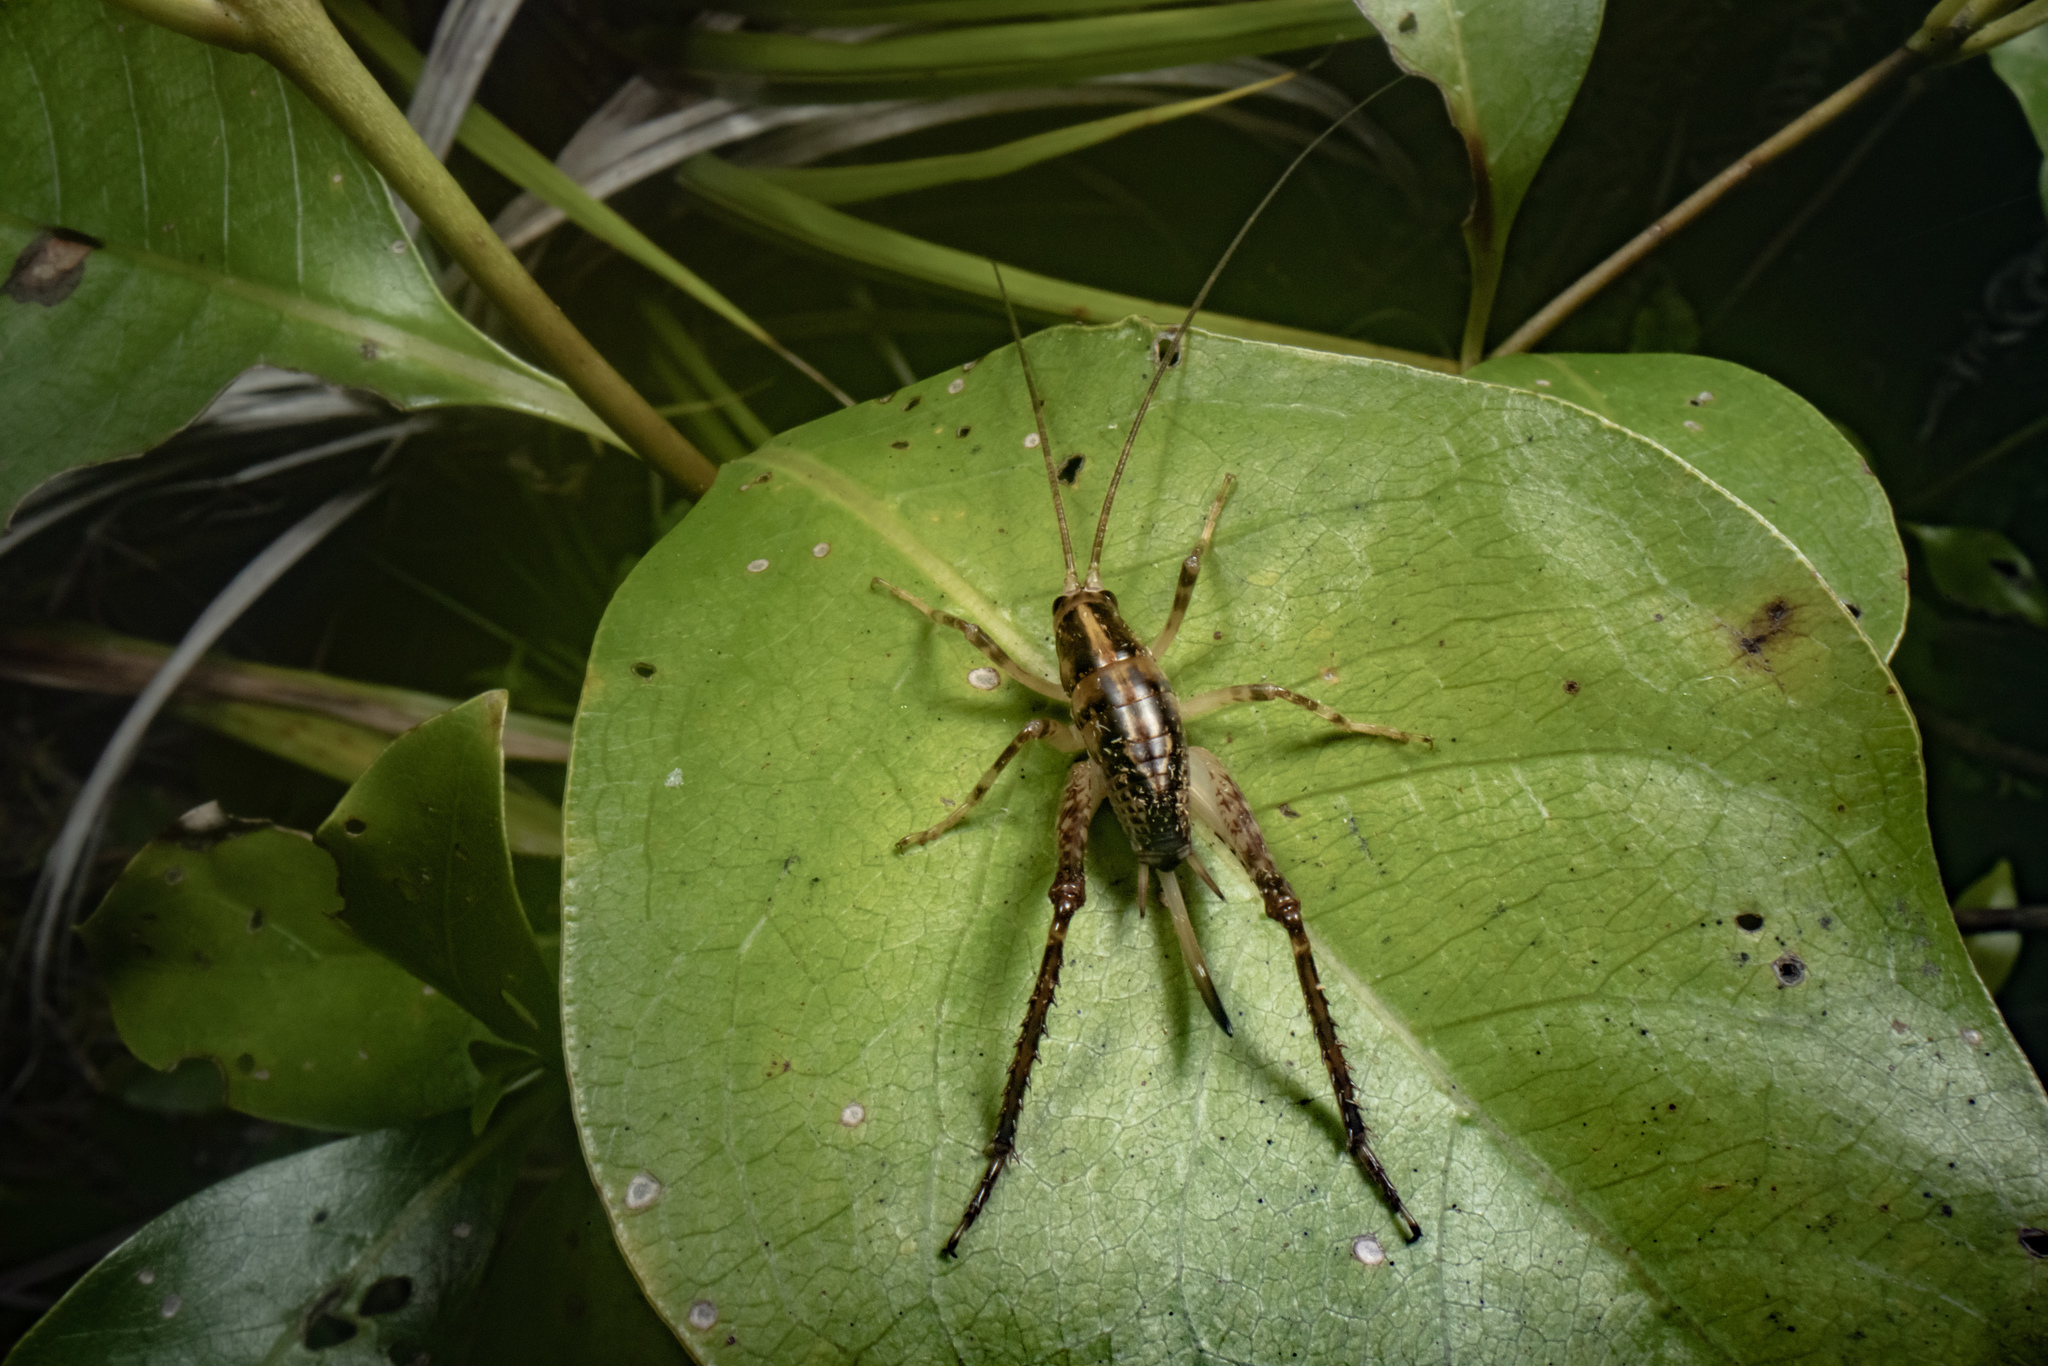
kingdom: Animalia
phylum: Arthropoda
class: Insecta
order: Orthoptera
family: Rhaphidophoridae
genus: Talitropsis
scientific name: Talitropsis sedilloti
